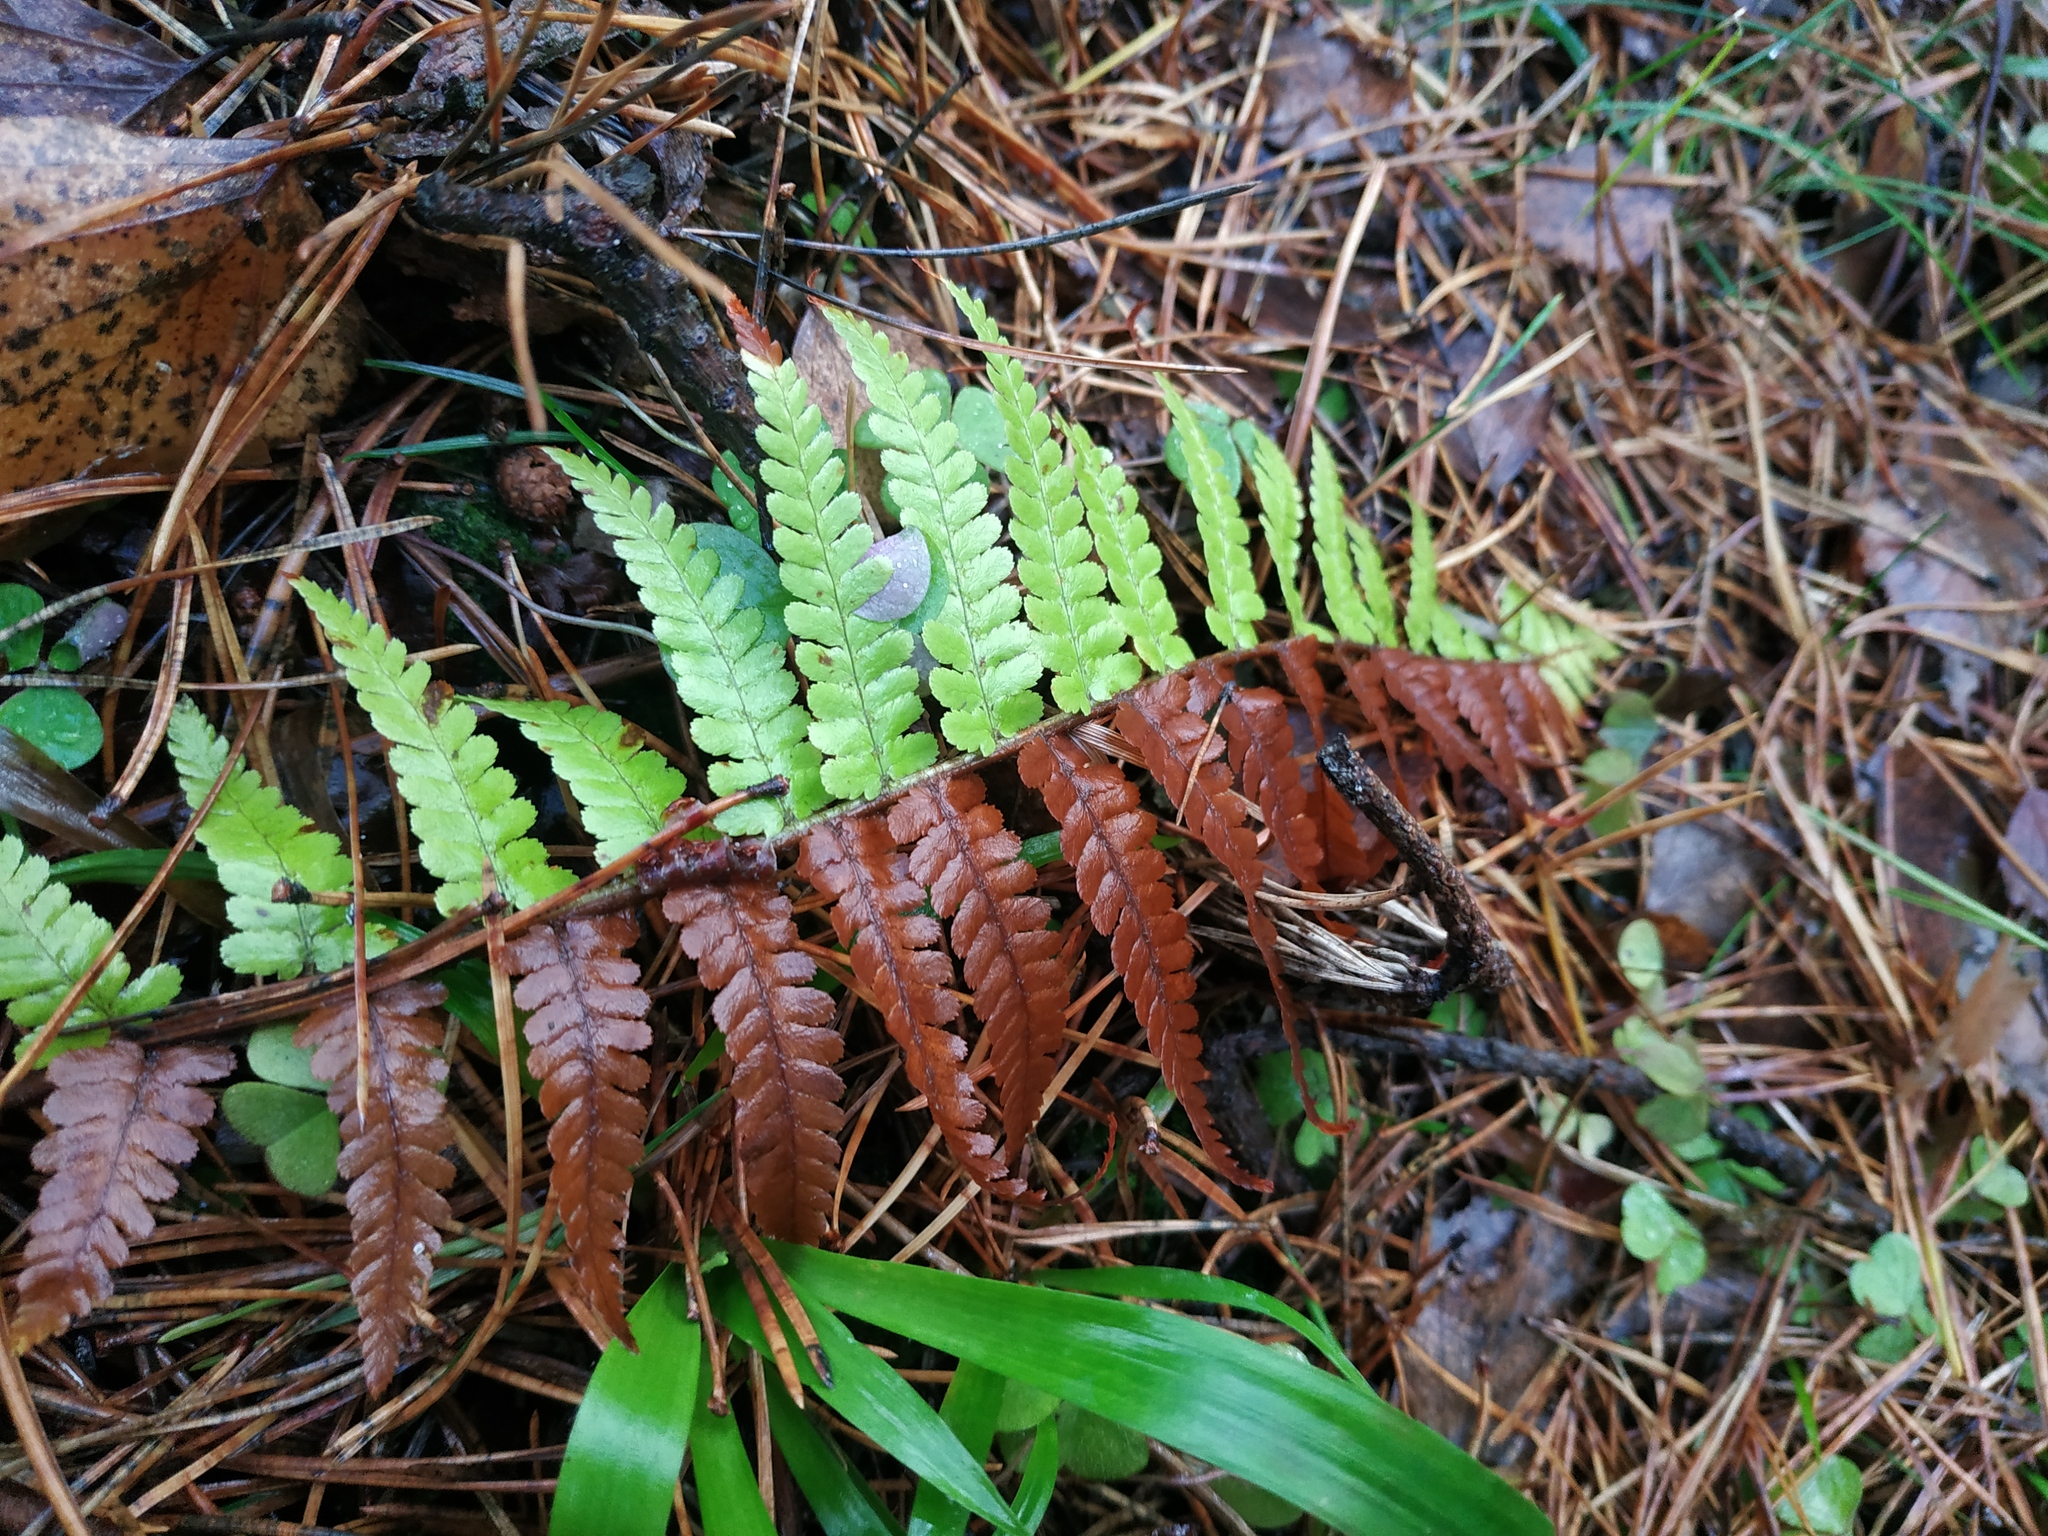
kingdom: Plantae
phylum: Tracheophyta
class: Polypodiopsida
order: Polypodiales
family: Dryopteridaceae
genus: Dryopteris
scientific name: Dryopteris filix-mas
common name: Male fern
